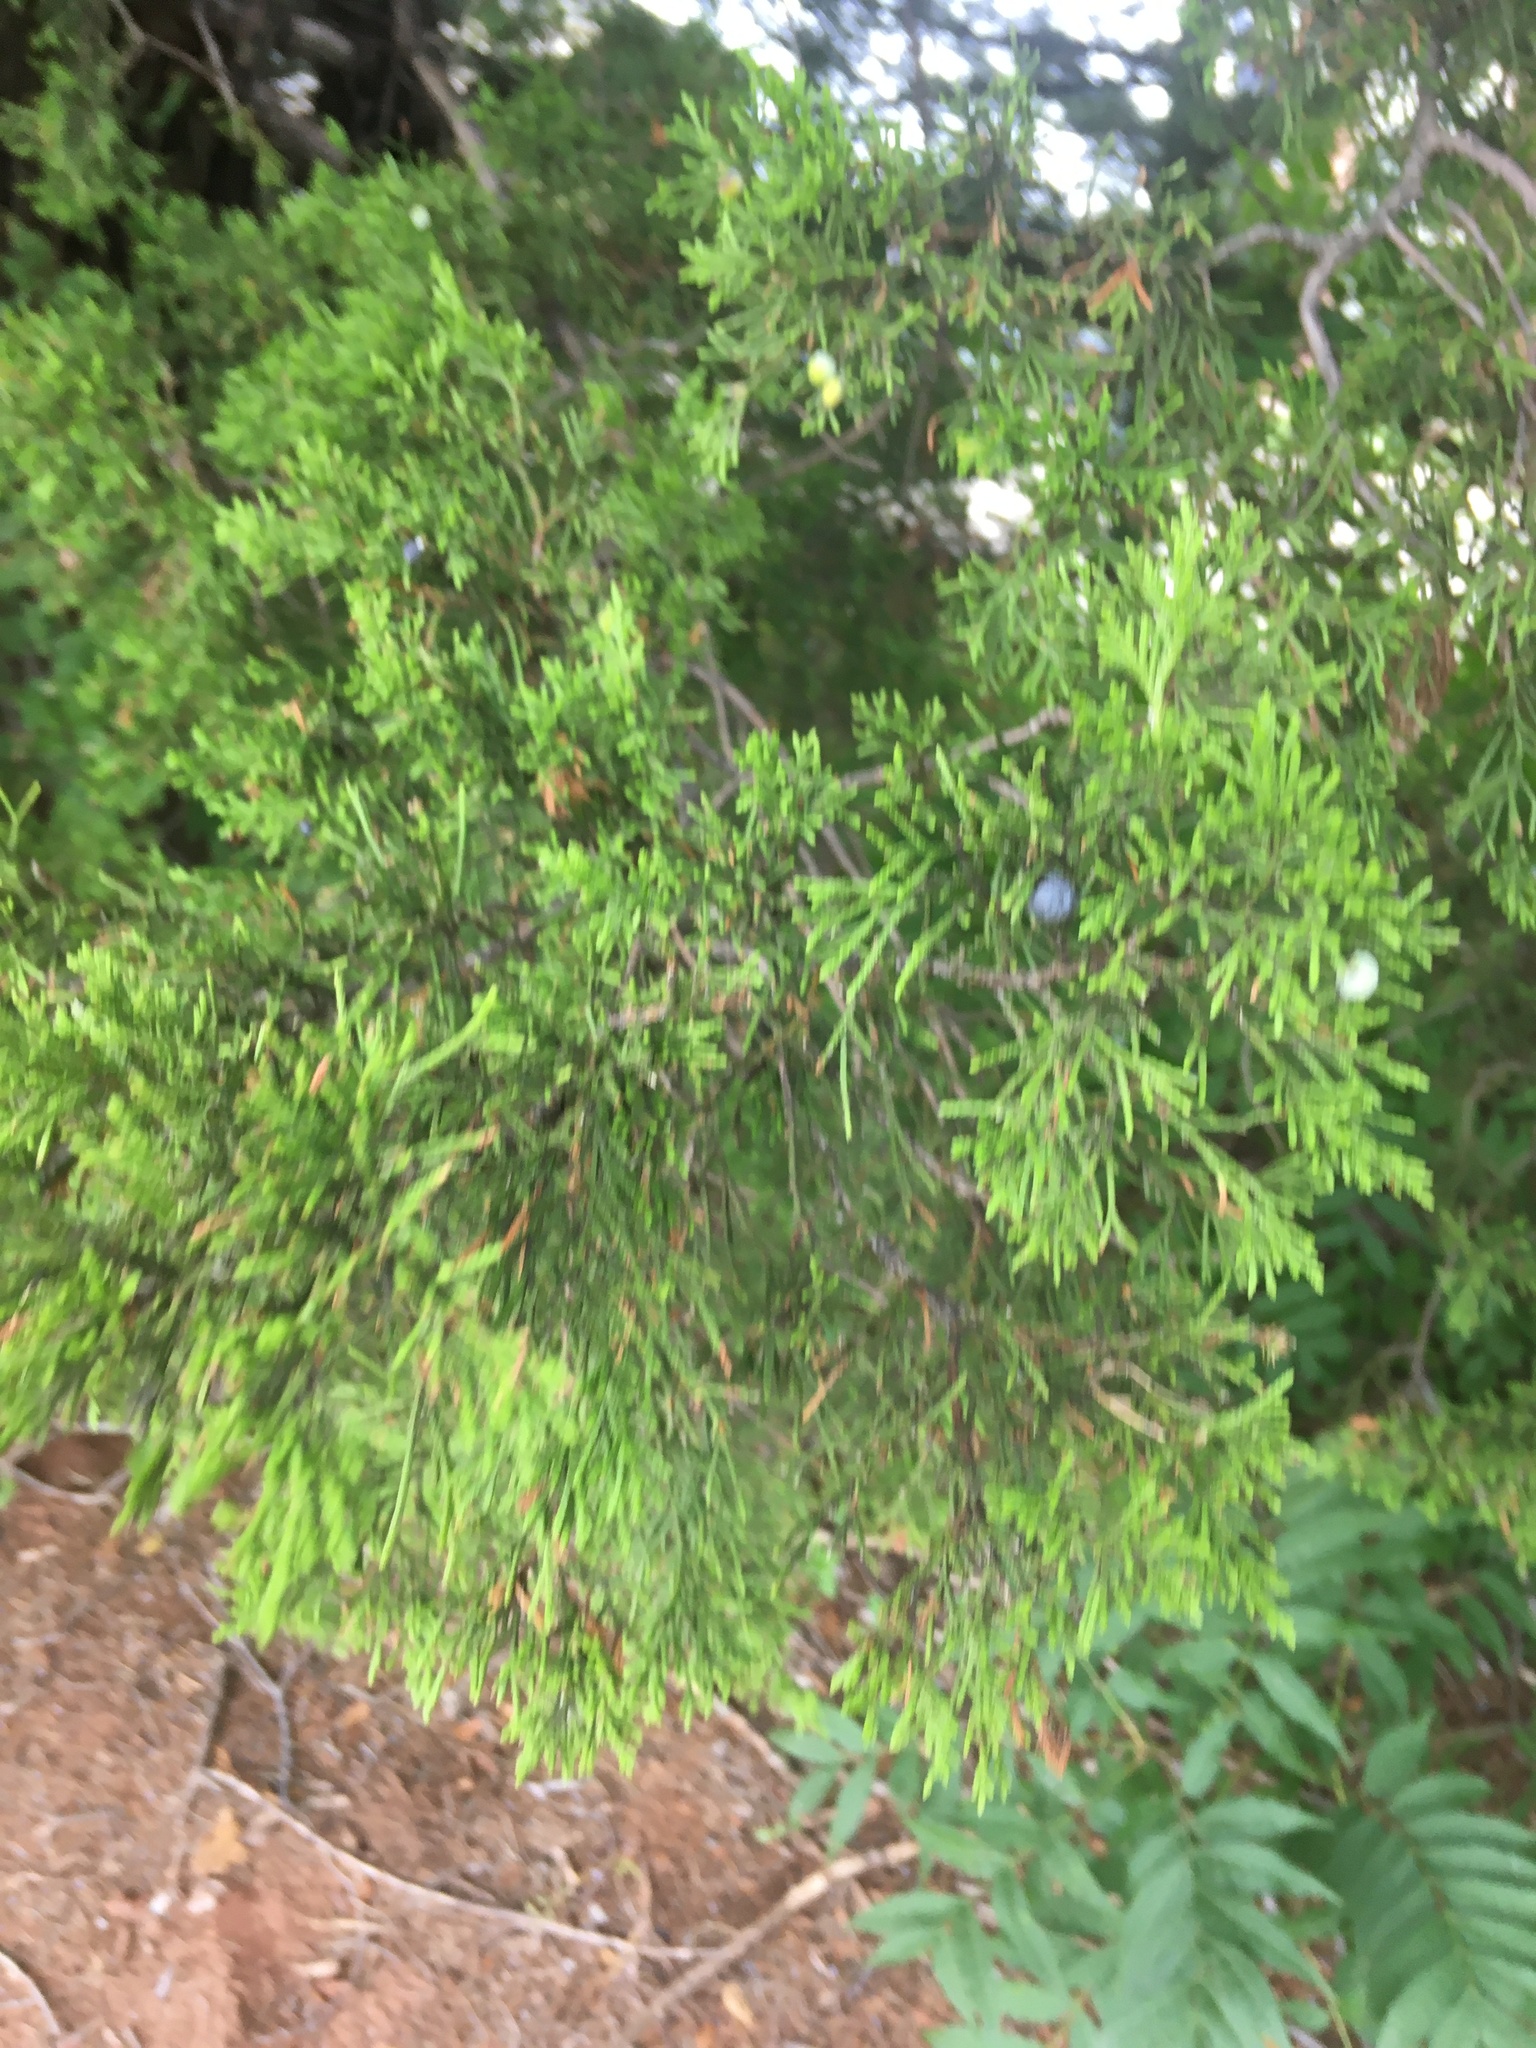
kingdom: Plantae
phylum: Tracheophyta
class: Pinopsida
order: Pinales
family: Cupressaceae
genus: Juniperus
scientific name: Juniperus virginiana
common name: Red juniper
